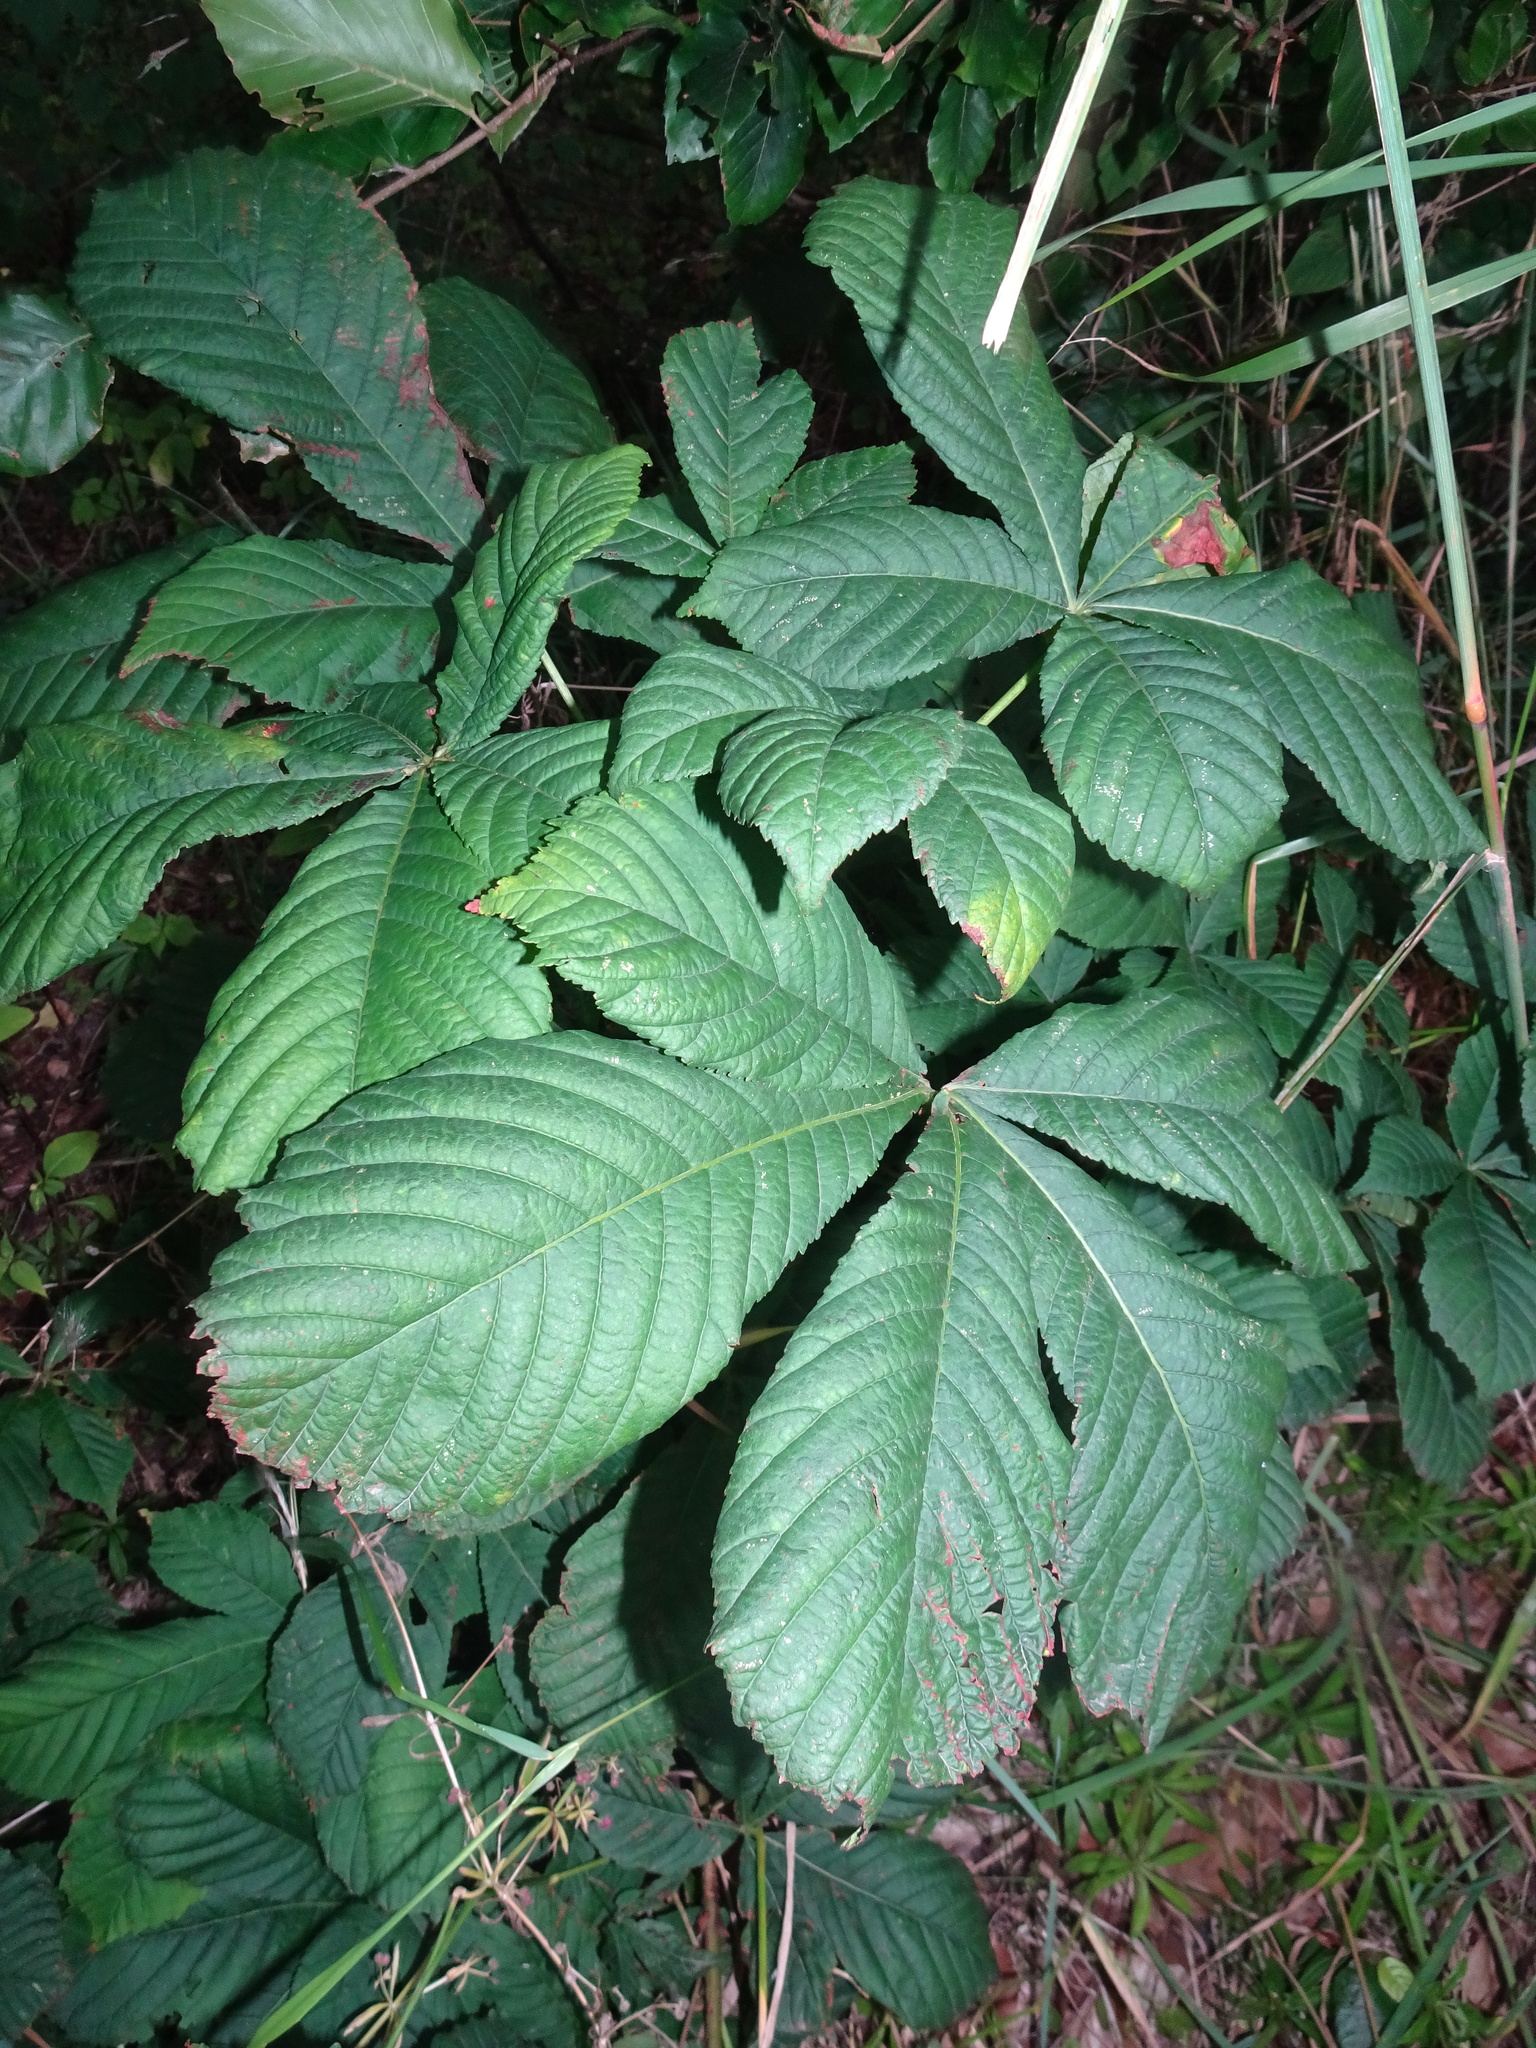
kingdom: Plantae
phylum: Tracheophyta
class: Magnoliopsida
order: Sapindales
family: Sapindaceae
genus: Aesculus
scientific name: Aesculus hippocastanum
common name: Horse-chestnut
